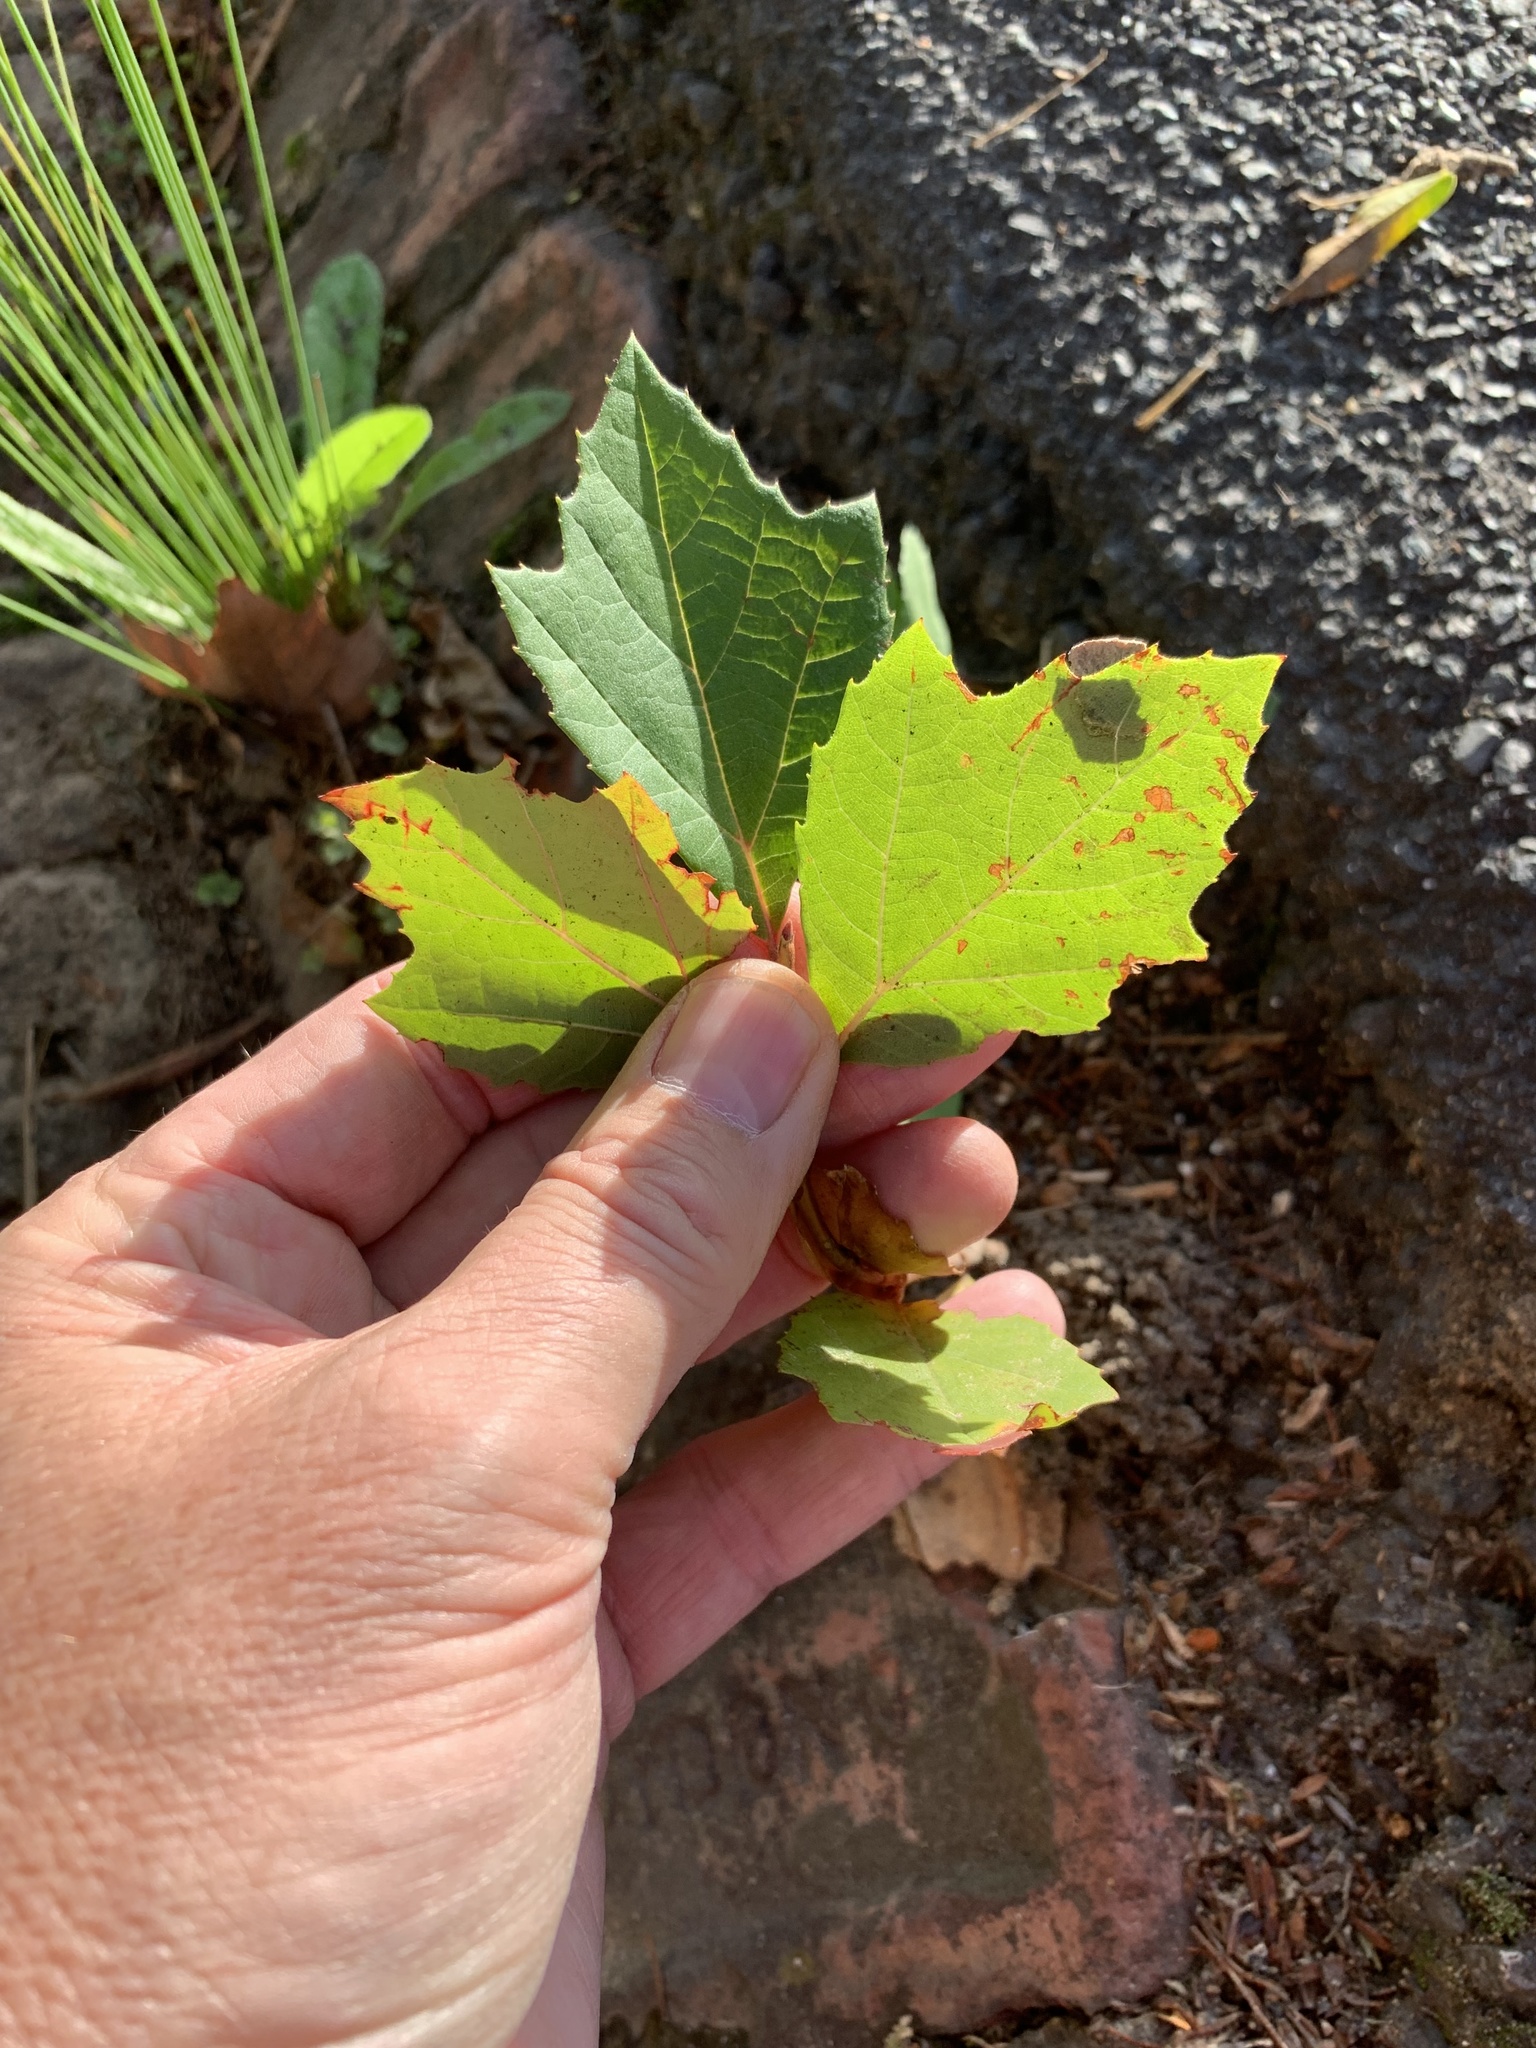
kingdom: Plantae
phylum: Tracheophyta
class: Magnoliopsida
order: Proteales
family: Platanaceae
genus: Platanus
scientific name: Platanus hispanica
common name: London plane
